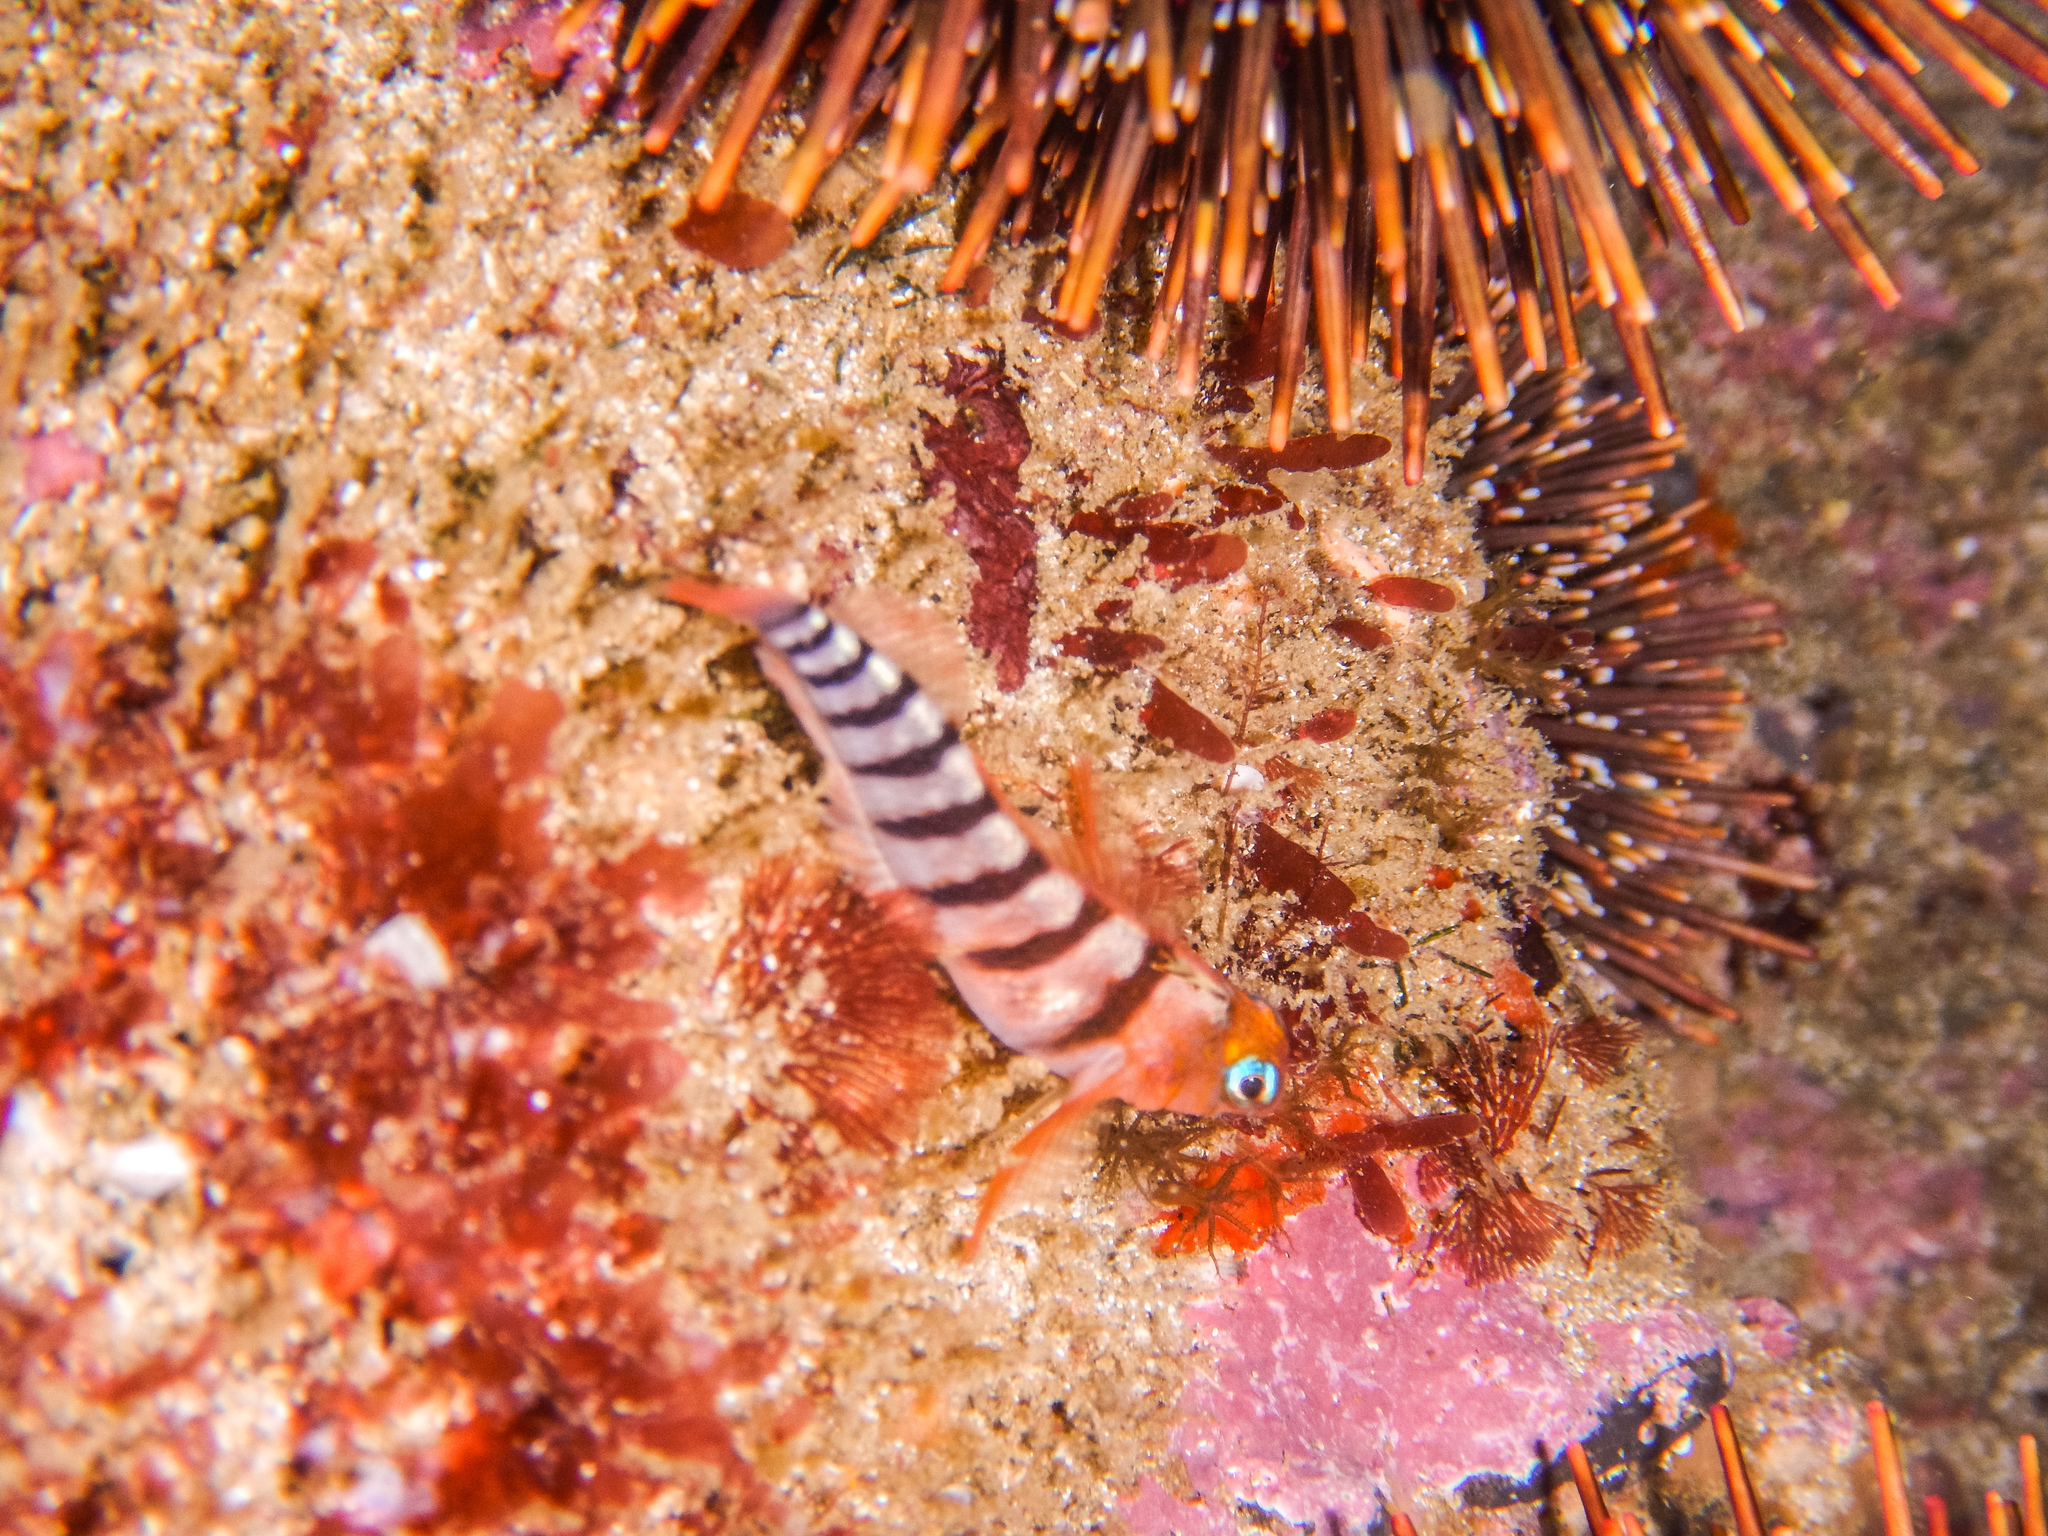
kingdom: Animalia
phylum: Chordata
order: Perciformes
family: Tripterygiidae
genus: Notoclinops
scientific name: Notoclinops segmentatus
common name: Blue-eyed triplefin
